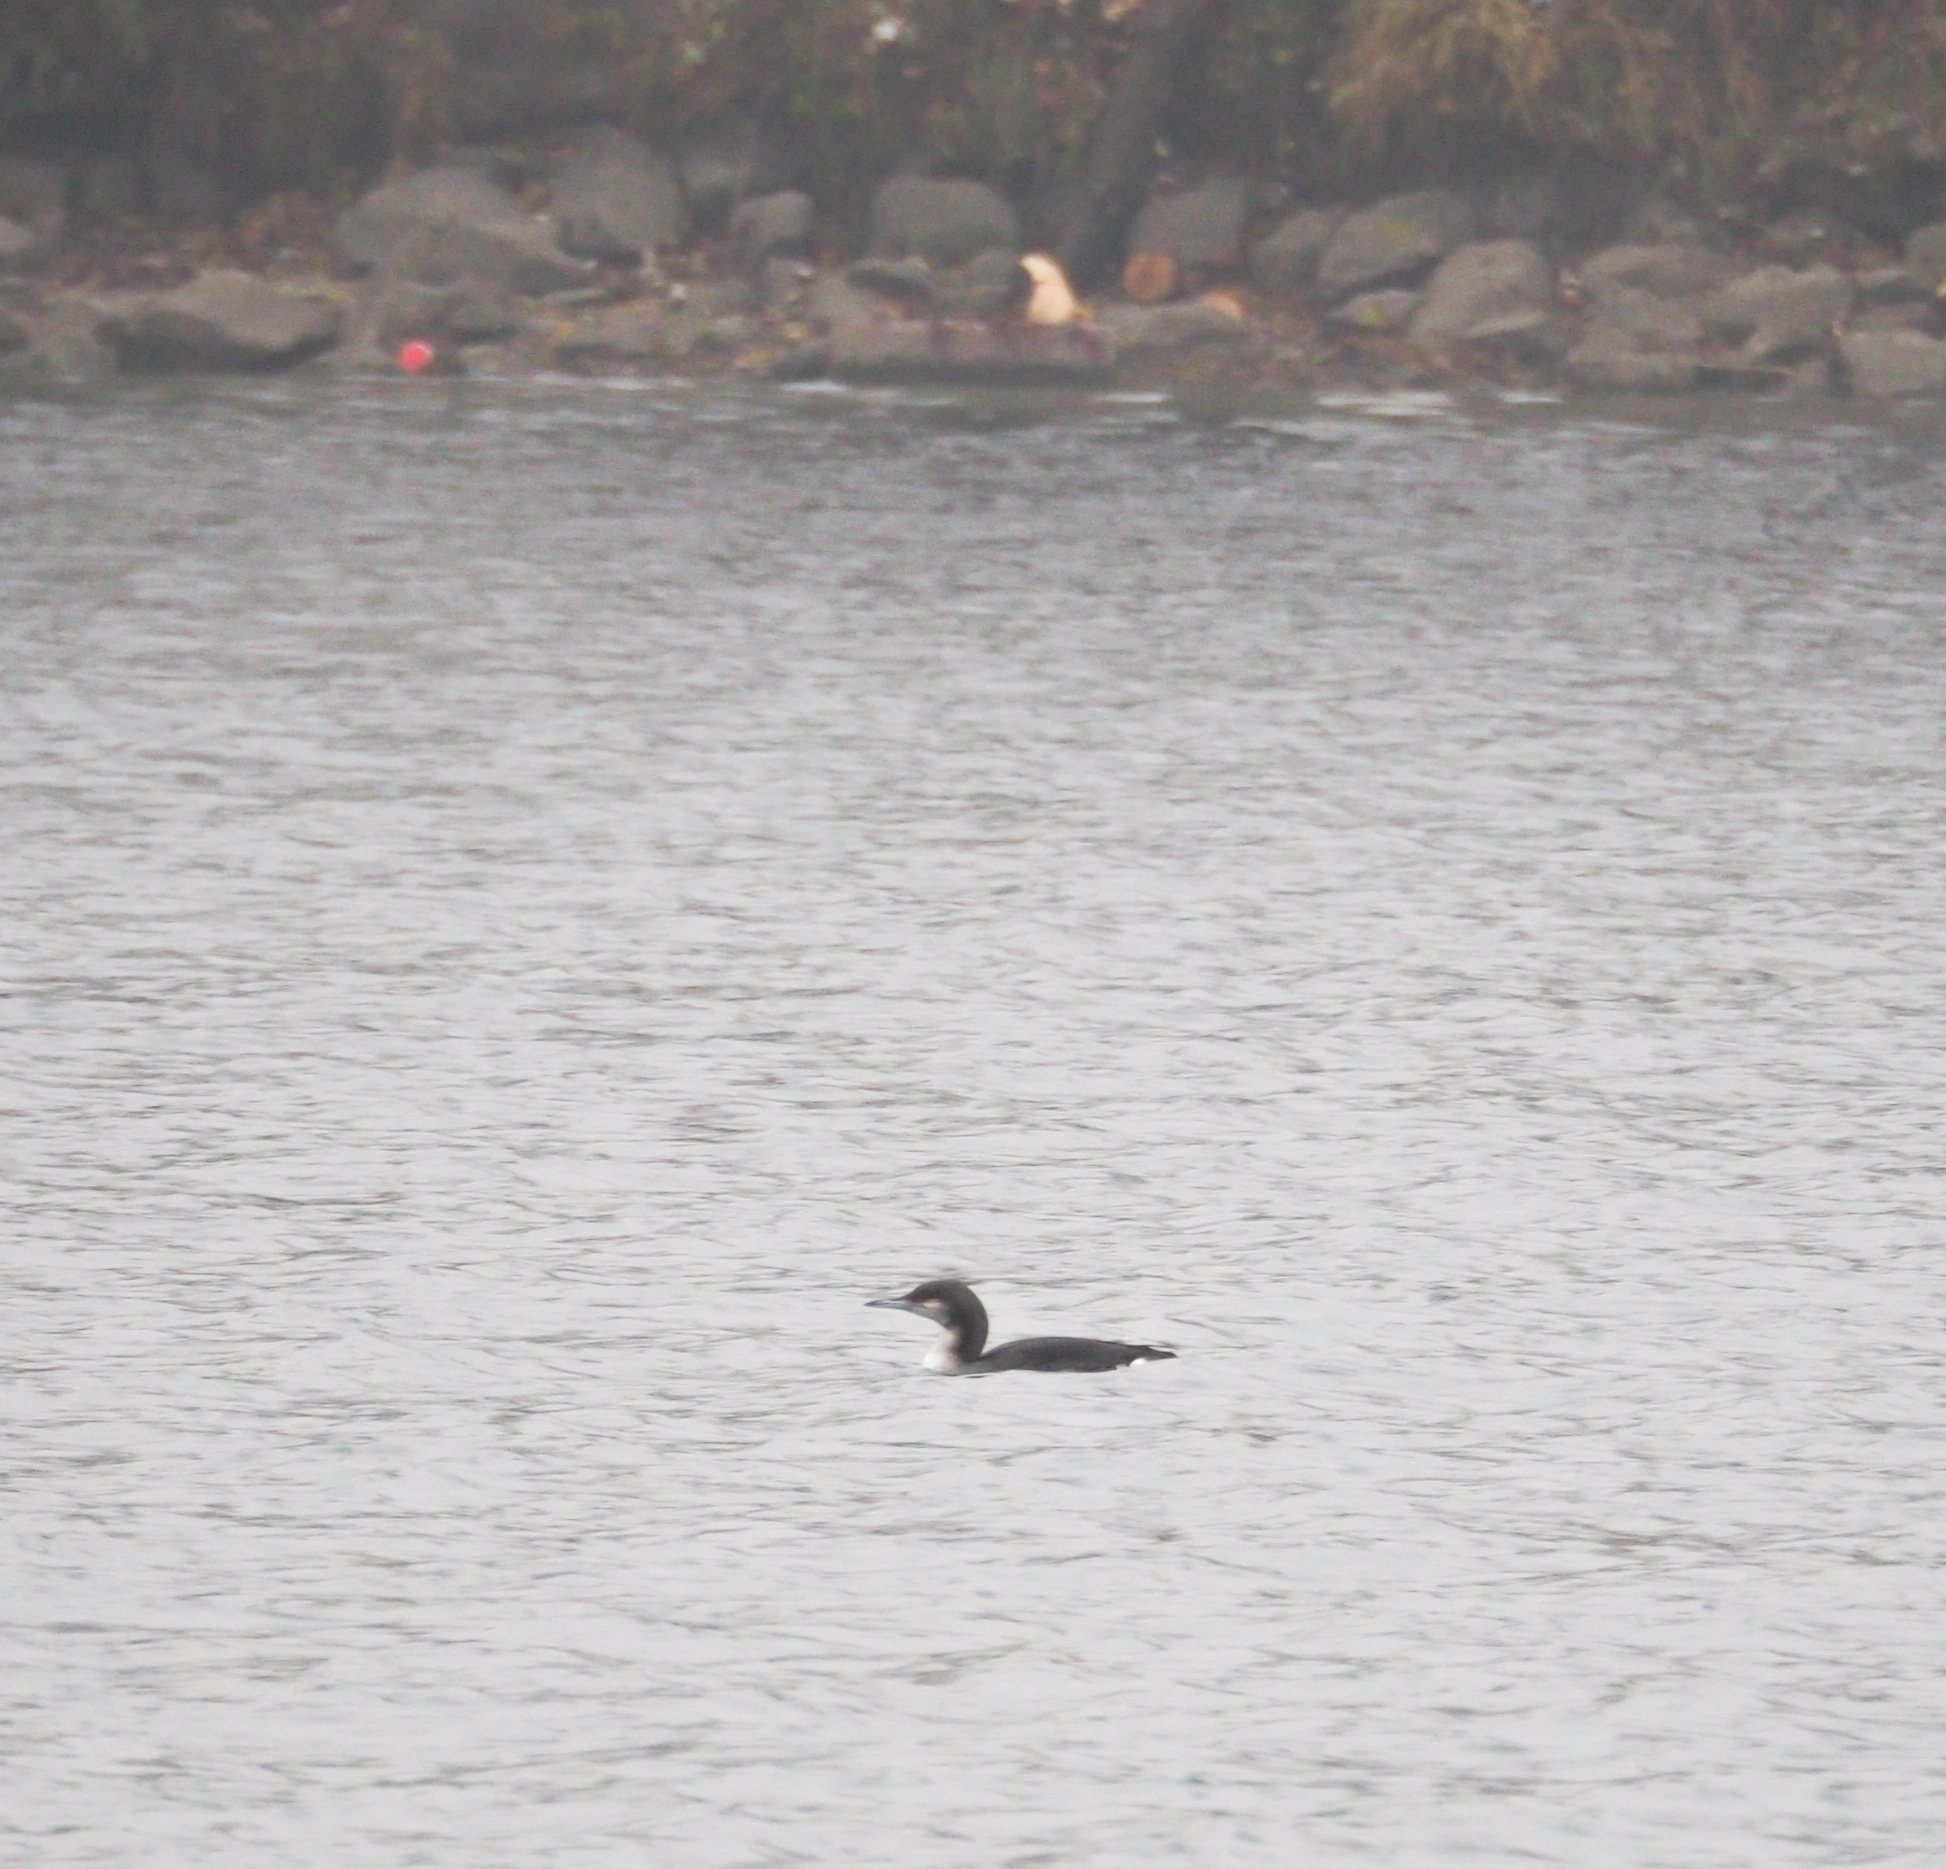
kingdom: Animalia
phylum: Chordata
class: Aves
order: Gaviiformes
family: Gaviidae
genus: Gavia
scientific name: Gavia arctica
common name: Black-throated loon
